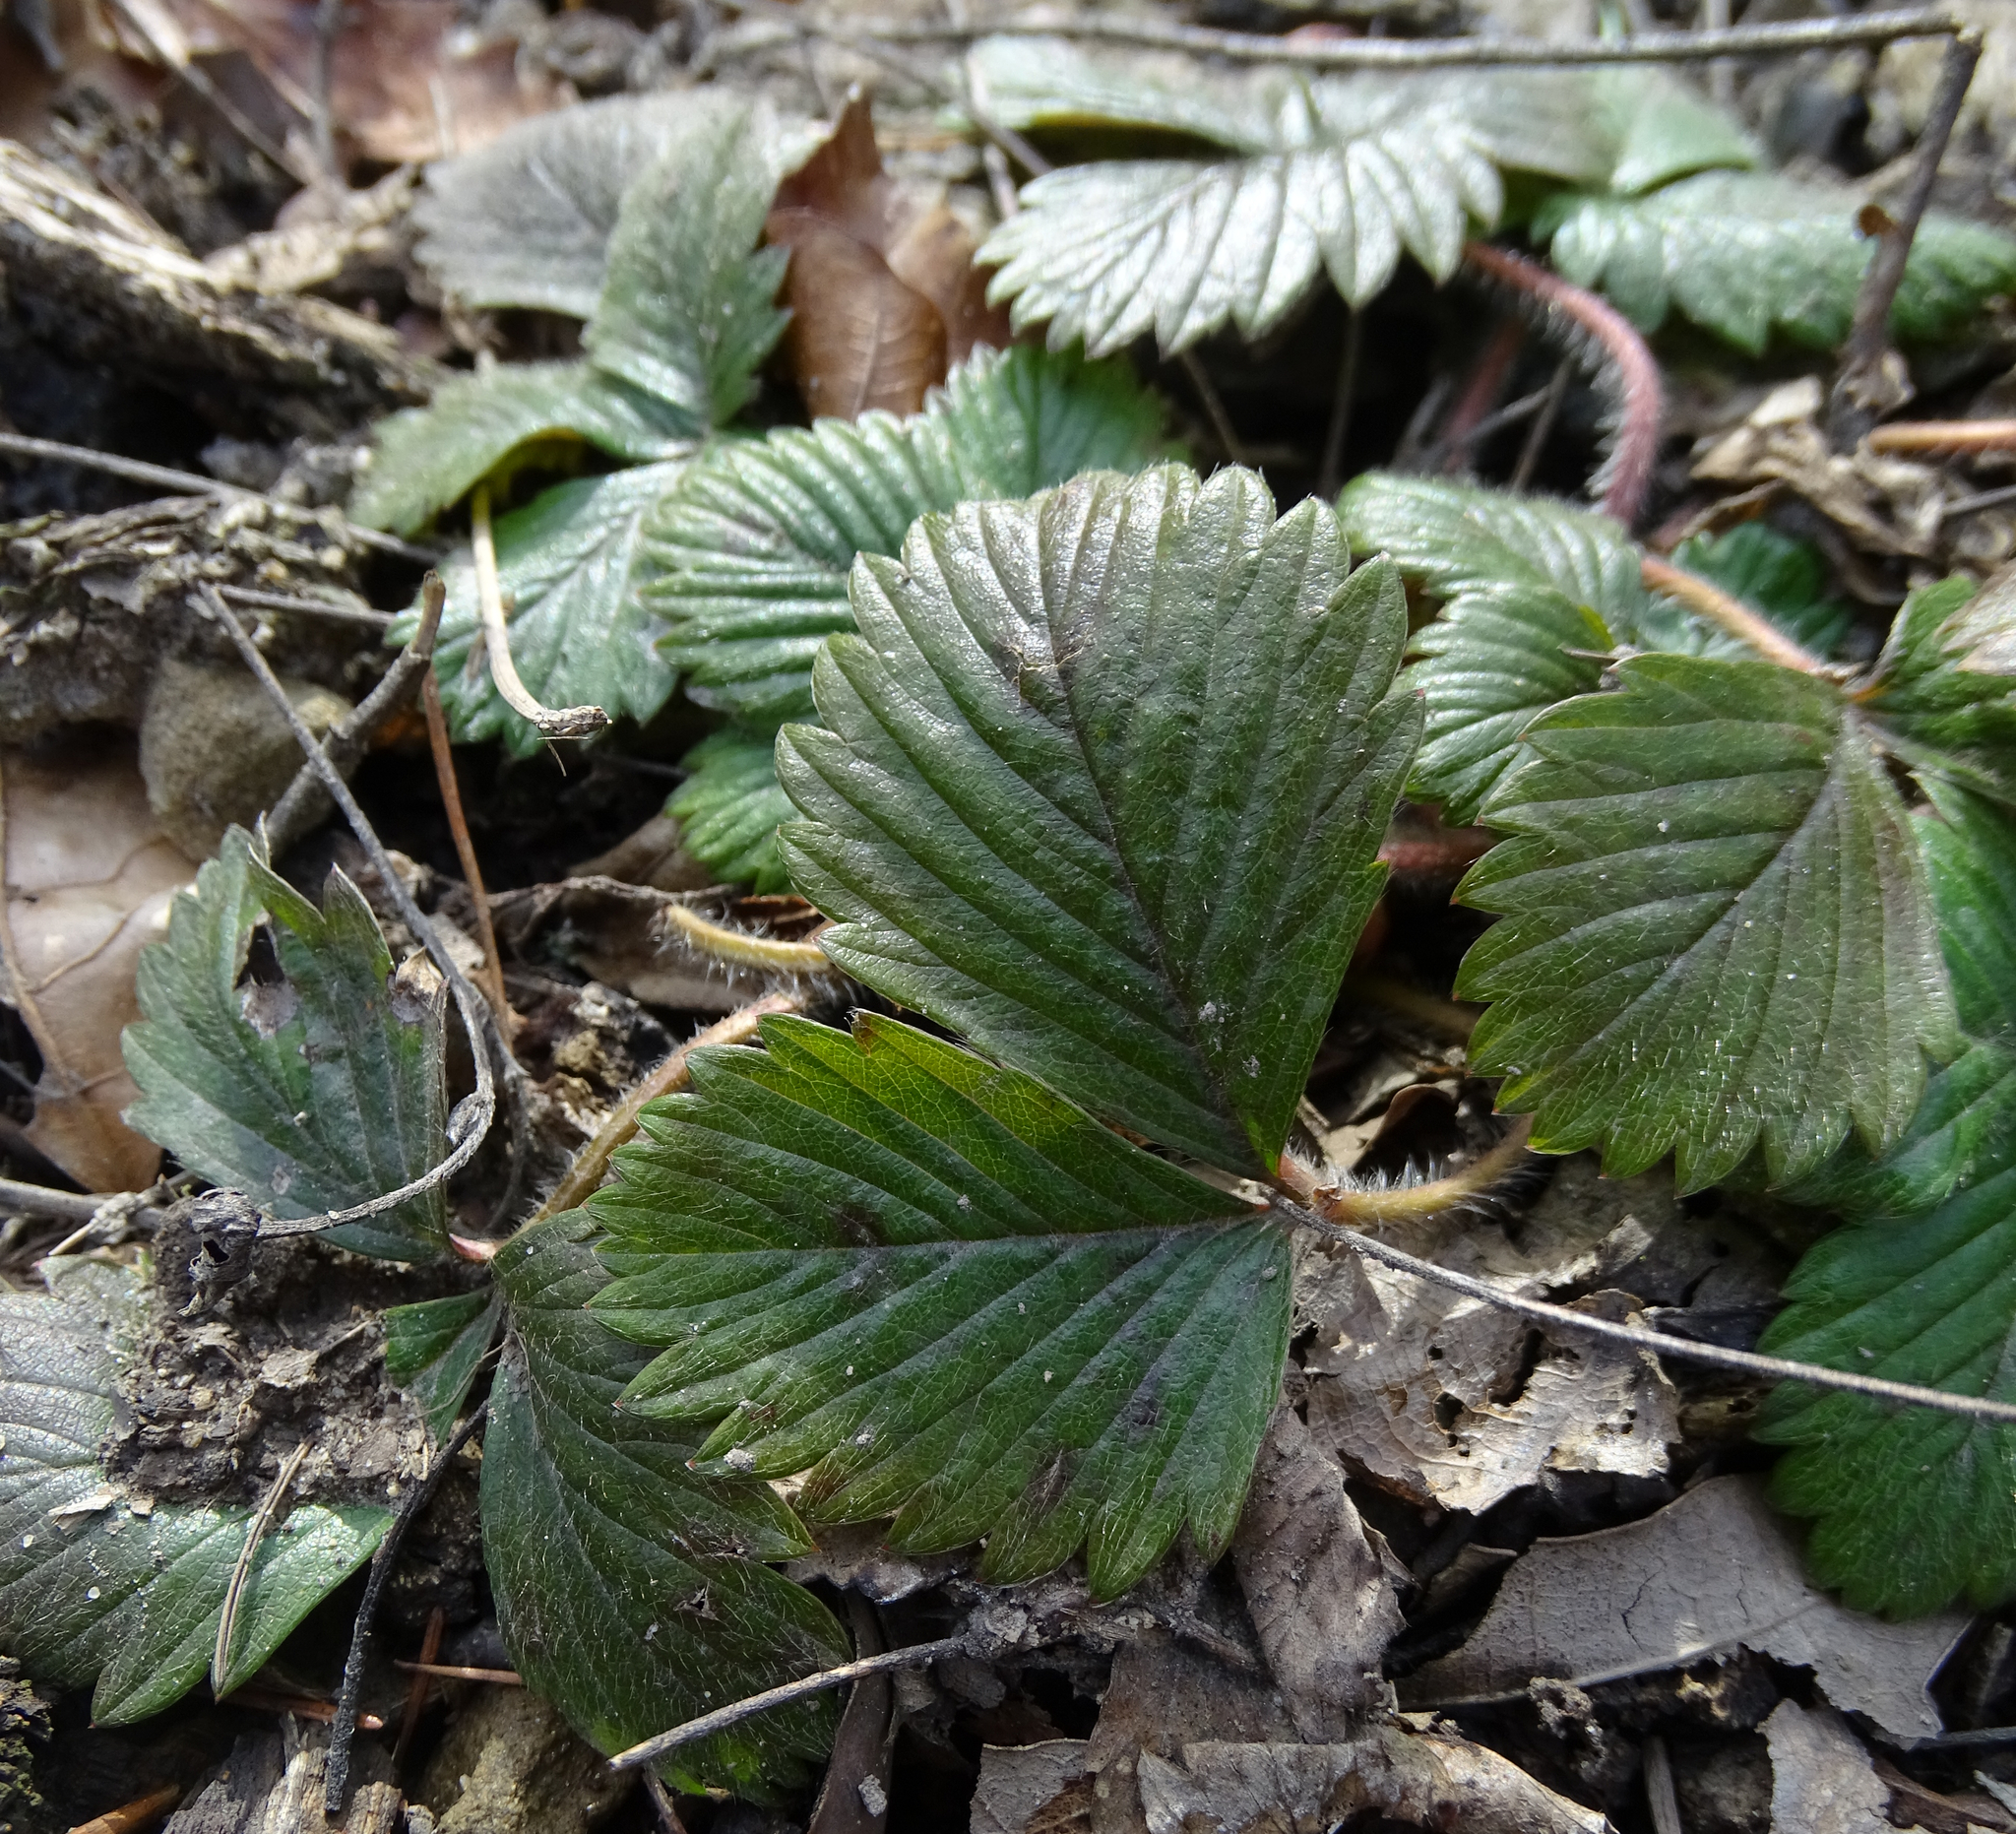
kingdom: Plantae
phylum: Tracheophyta
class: Magnoliopsida
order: Rosales
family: Rosaceae
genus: Fragaria
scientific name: Fragaria vesca
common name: Wild strawberry
